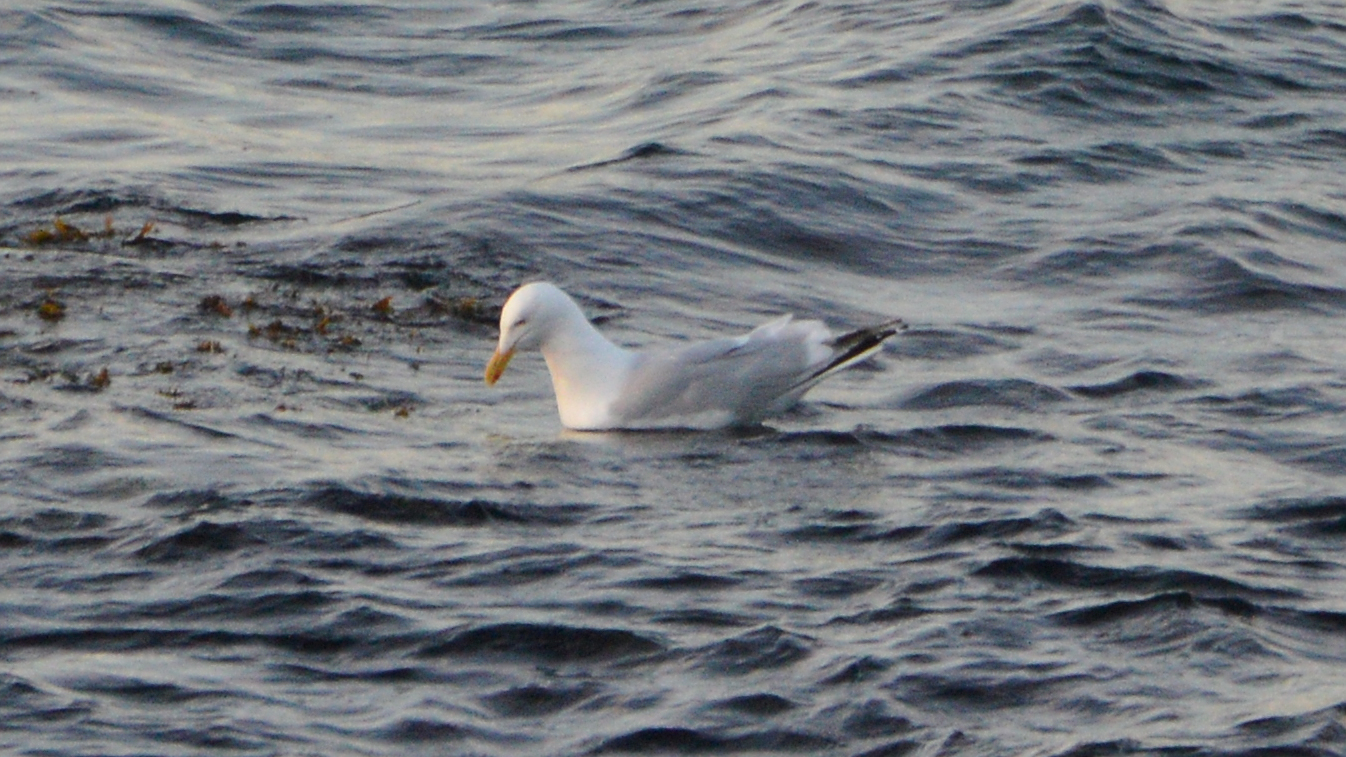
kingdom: Animalia
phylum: Chordata
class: Aves
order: Charadriiformes
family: Laridae
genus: Larus
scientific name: Larus argentatus
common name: Herring gull
